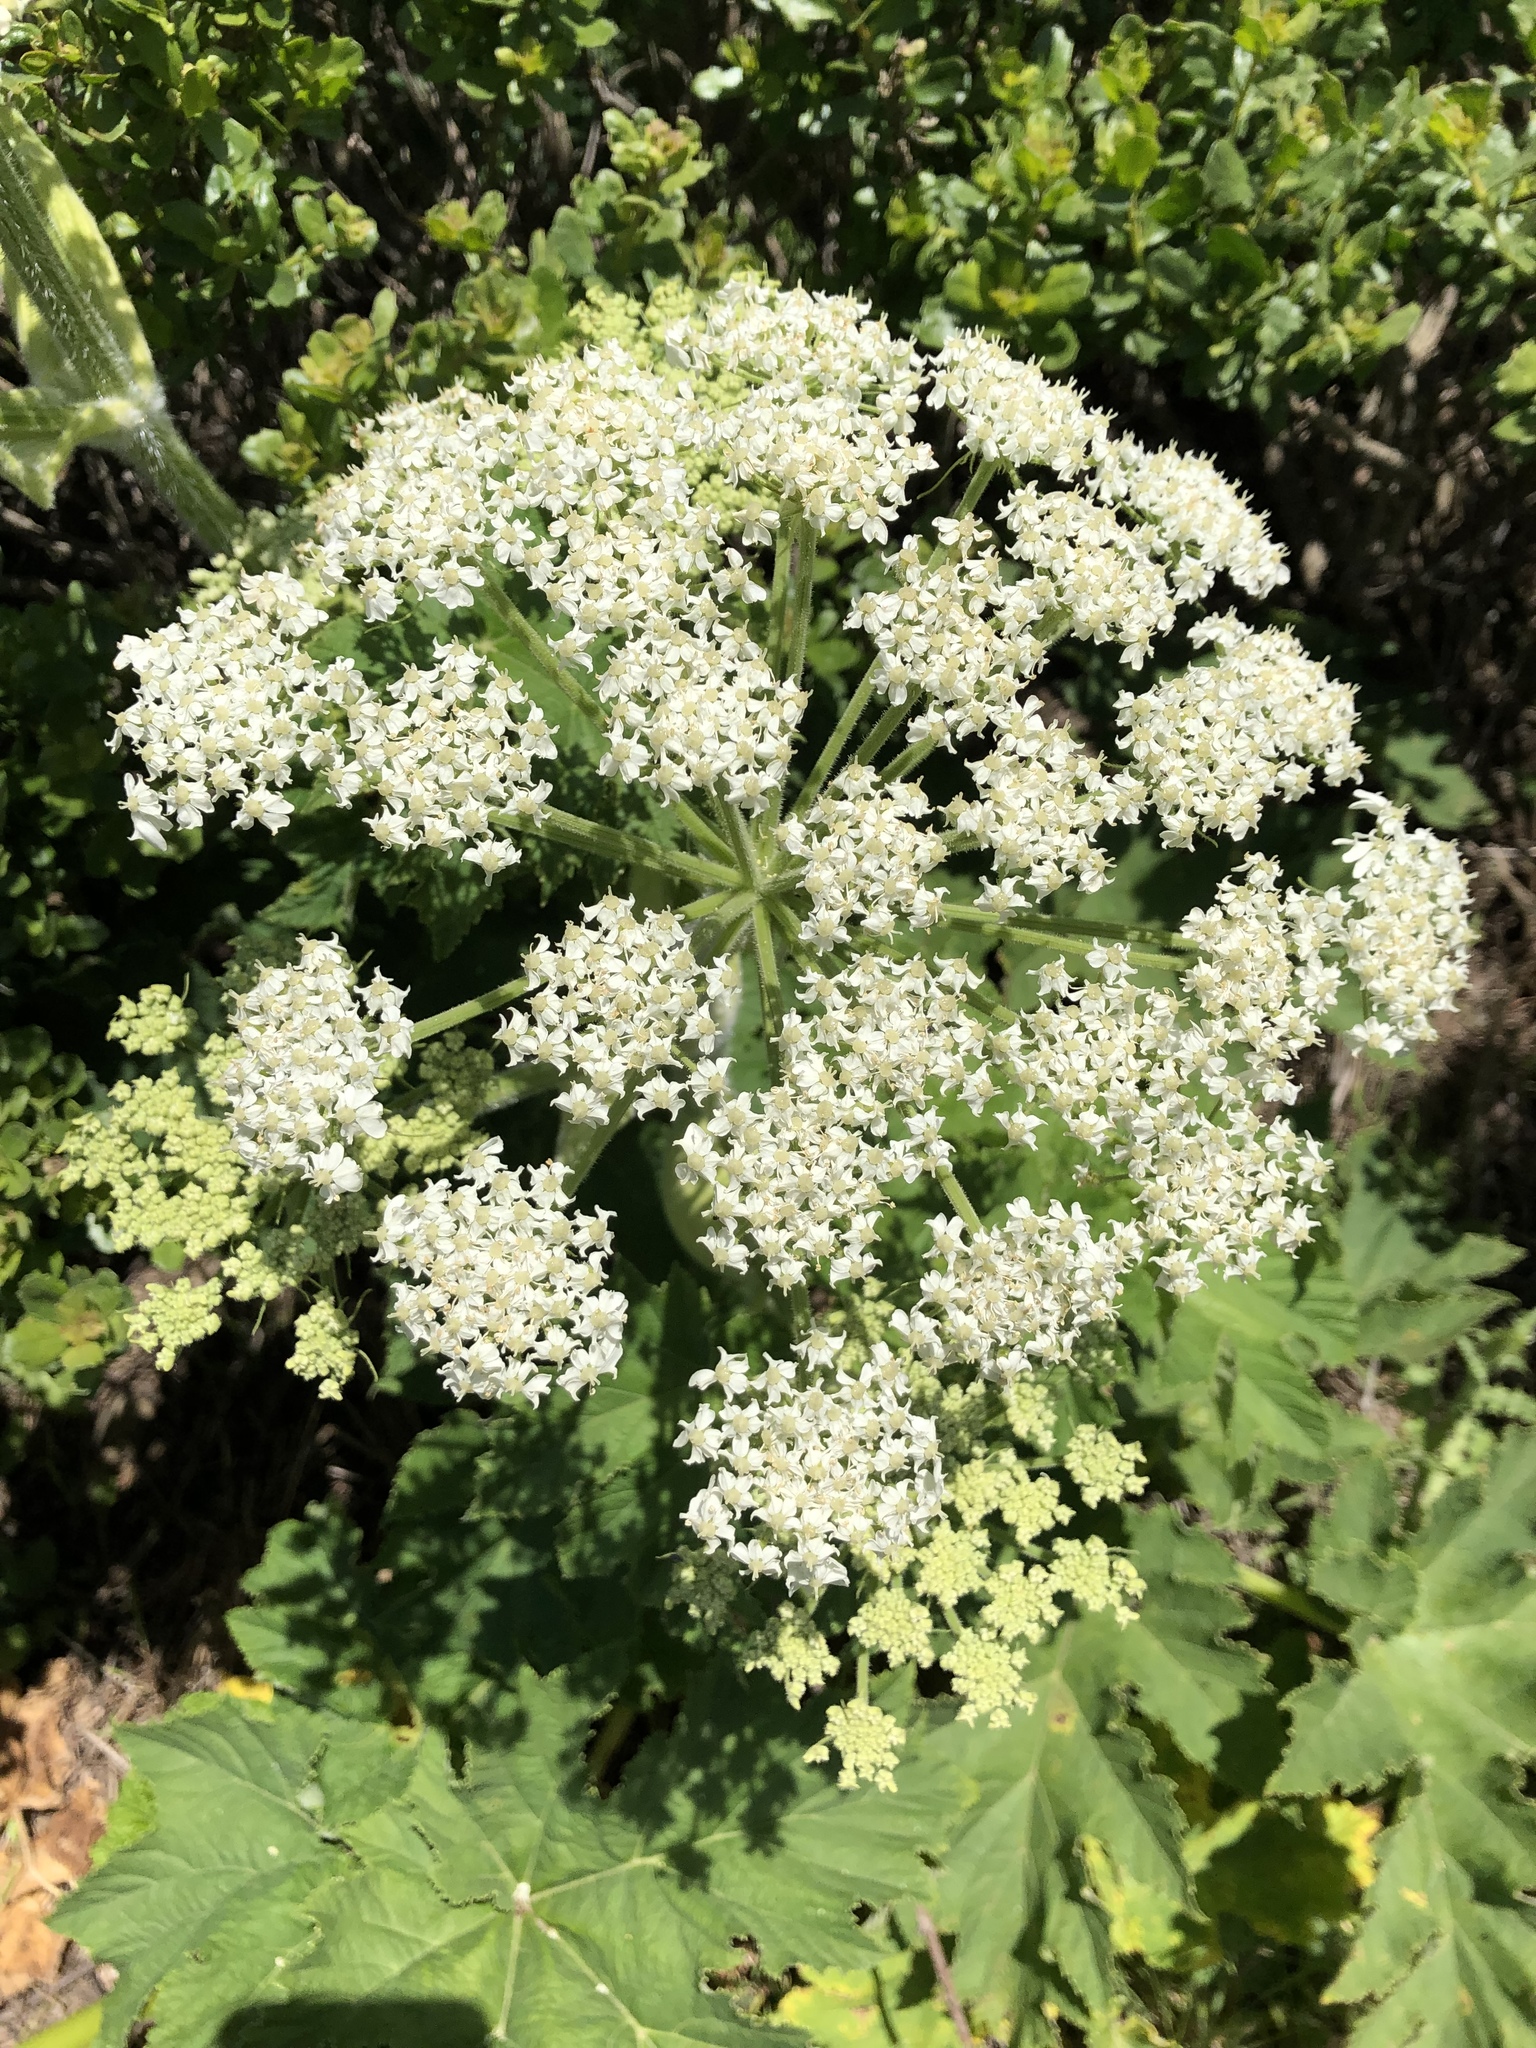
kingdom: Plantae
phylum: Tracheophyta
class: Magnoliopsida
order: Apiales
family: Apiaceae
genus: Heracleum
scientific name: Heracleum maximum
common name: American cow parsnip
